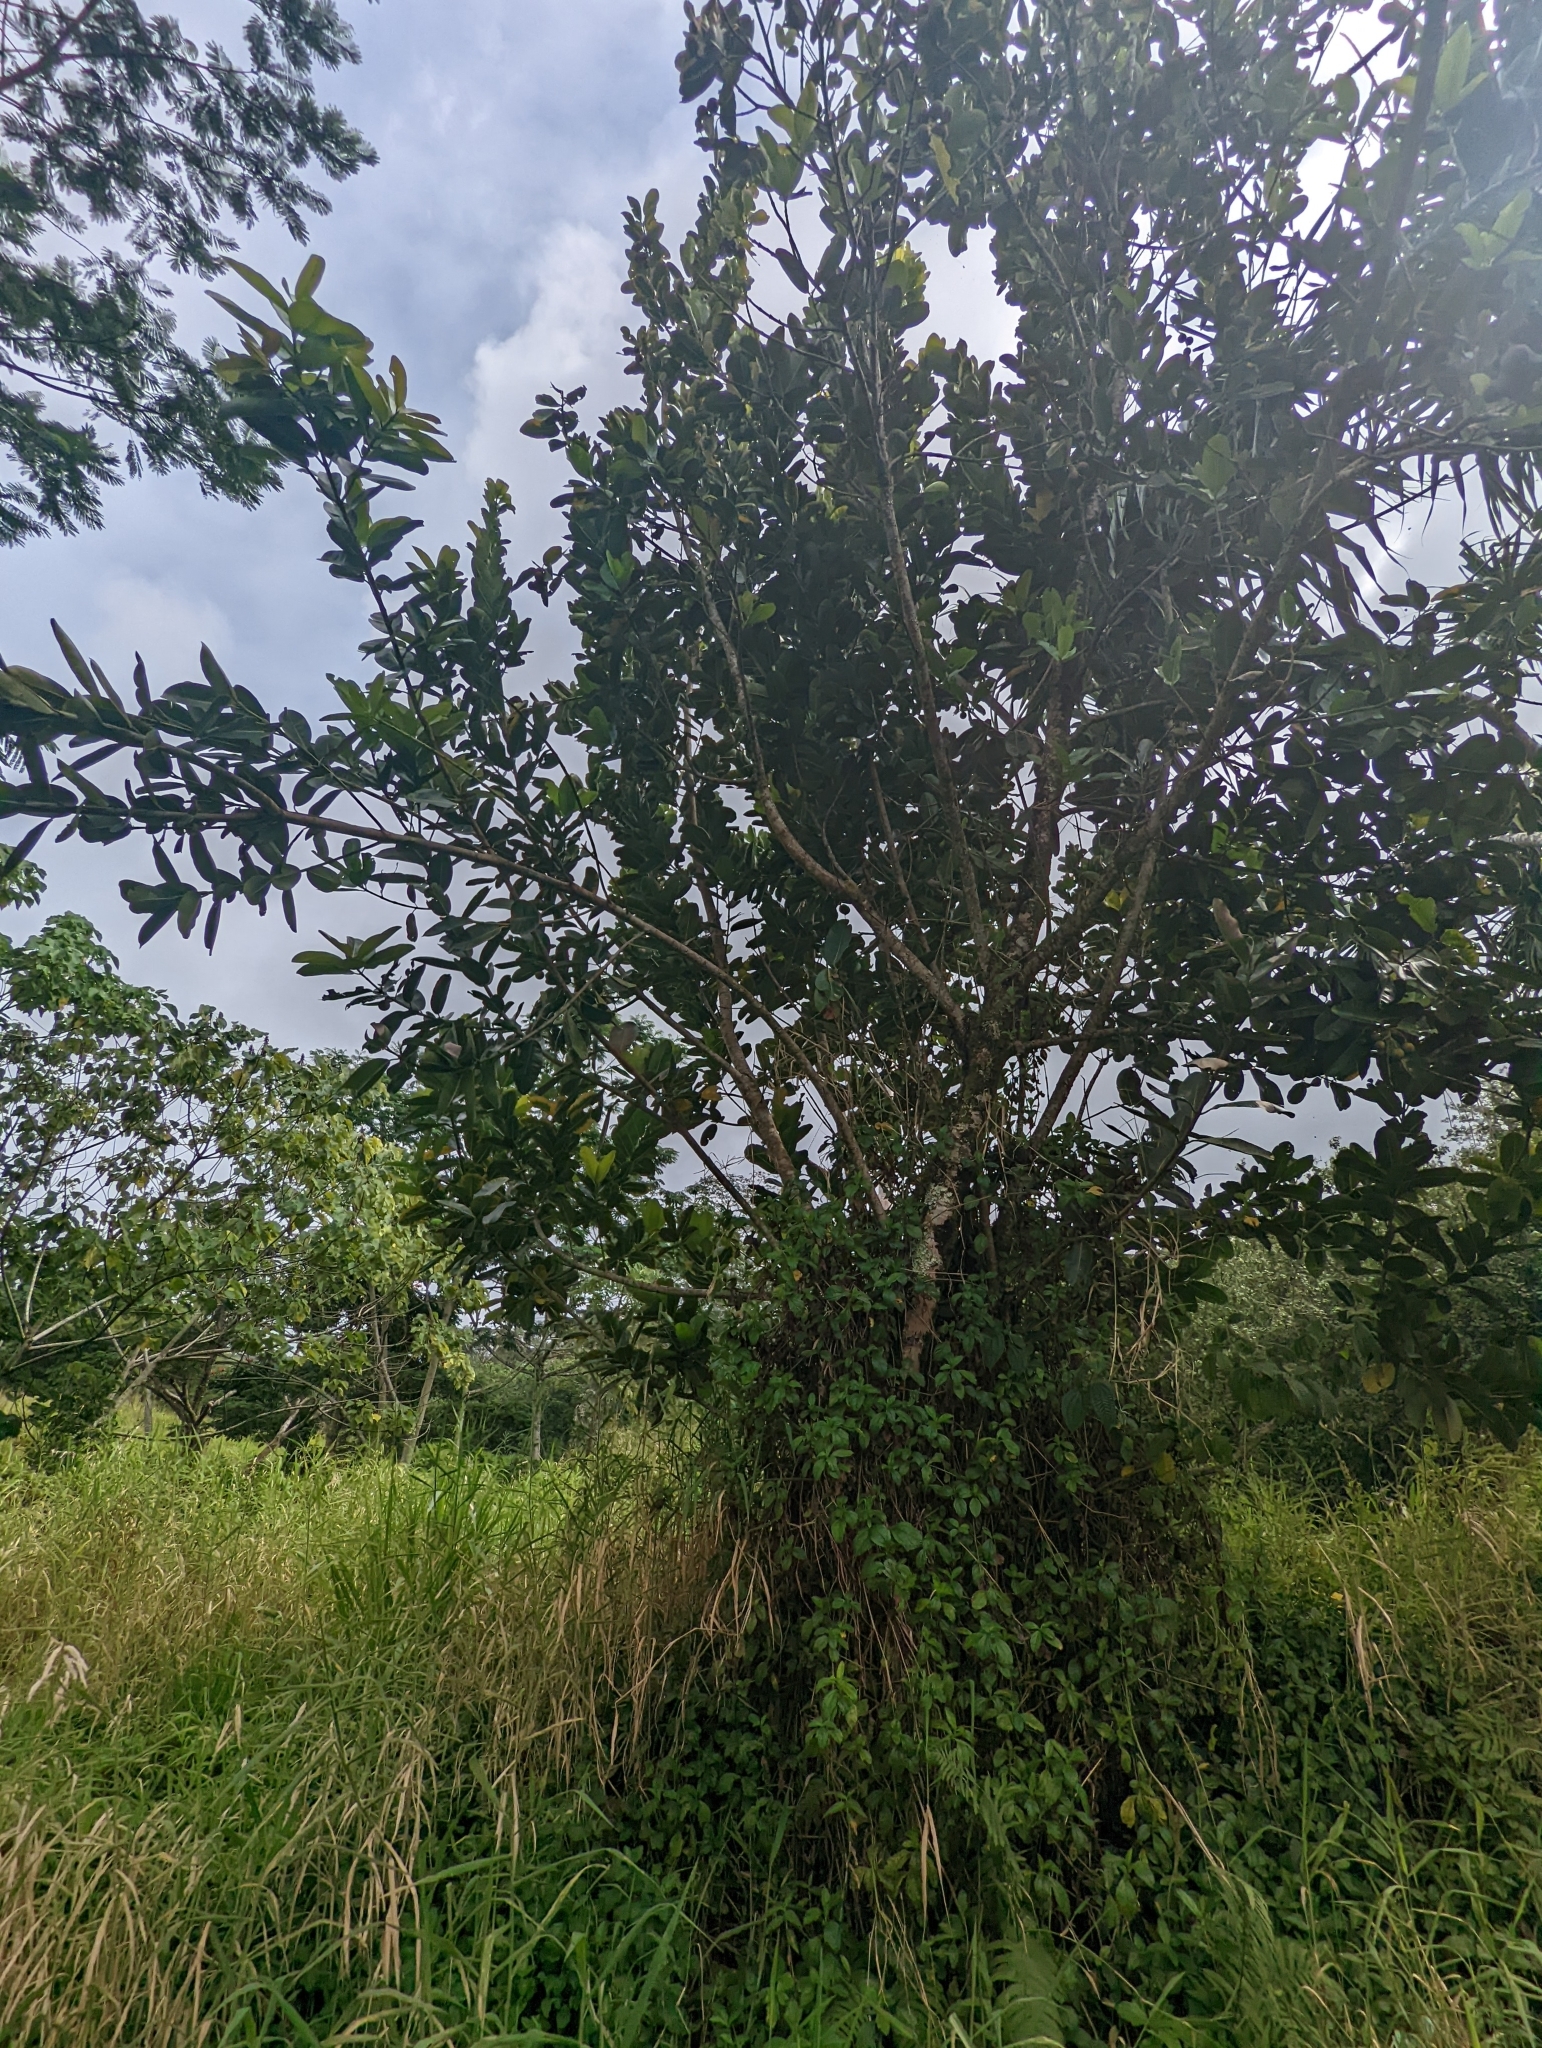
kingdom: Plantae
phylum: Tracheophyta
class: Magnoliopsida
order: Malpighiales
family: Calophyllaceae
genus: Calophyllum
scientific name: Calophyllum inophyllum
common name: Alexandrian laurel
